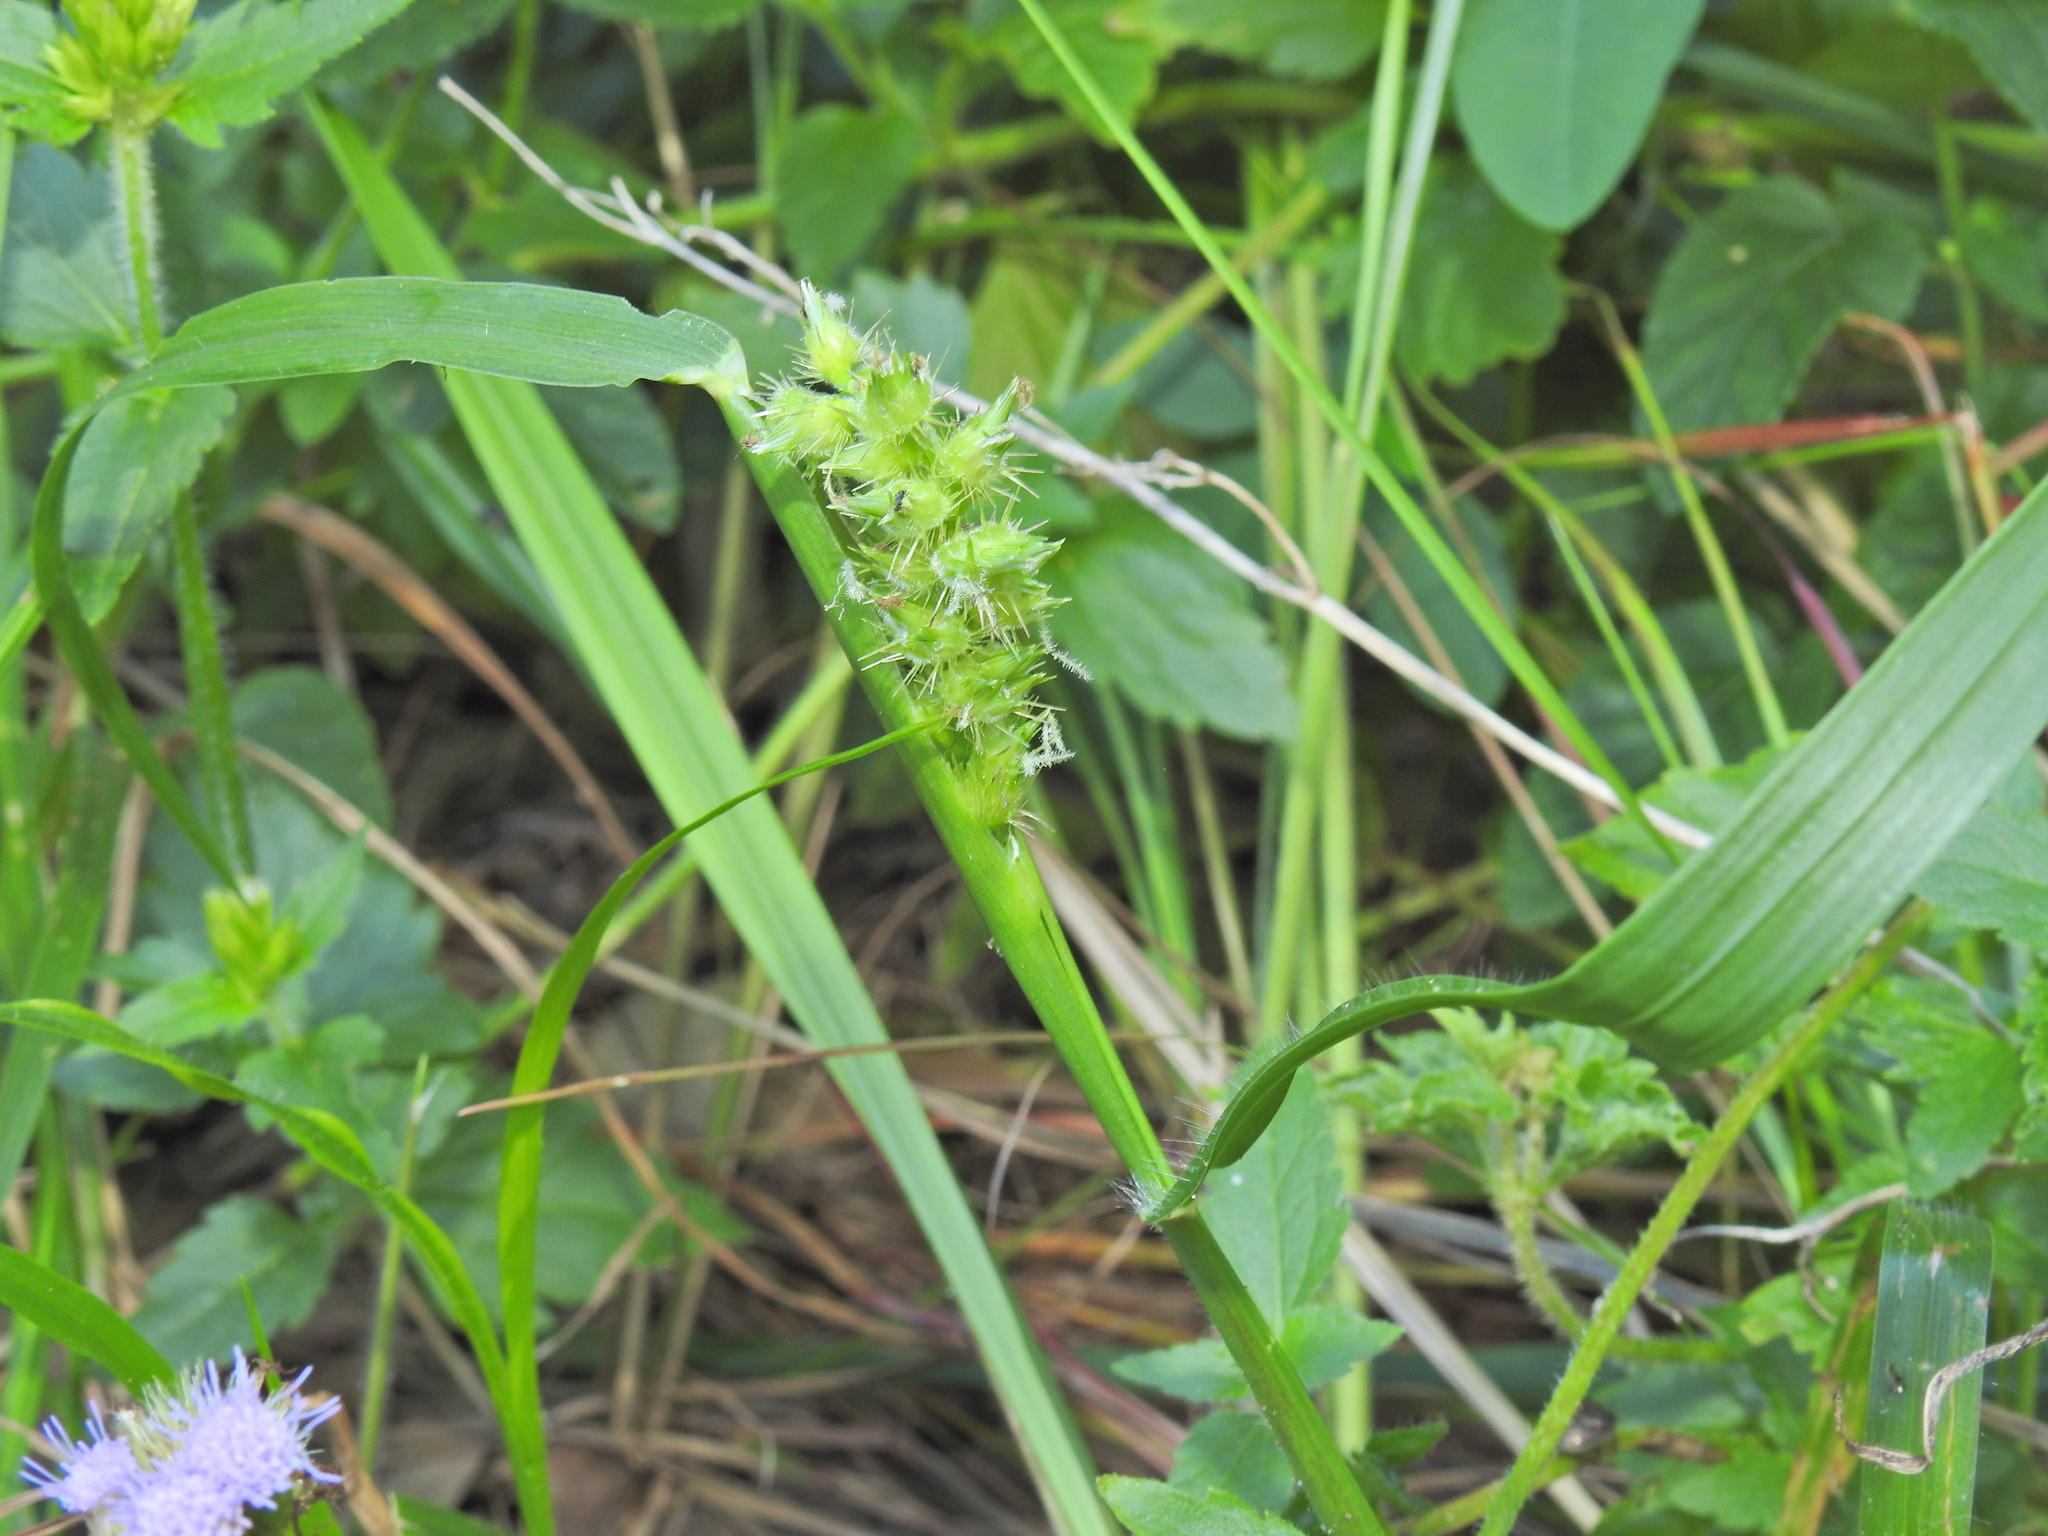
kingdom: Plantae
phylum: Tracheophyta
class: Liliopsida
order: Poales
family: Poaceae
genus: Cenchrus
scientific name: Cenchrus echinatus
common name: Southern sandbur
